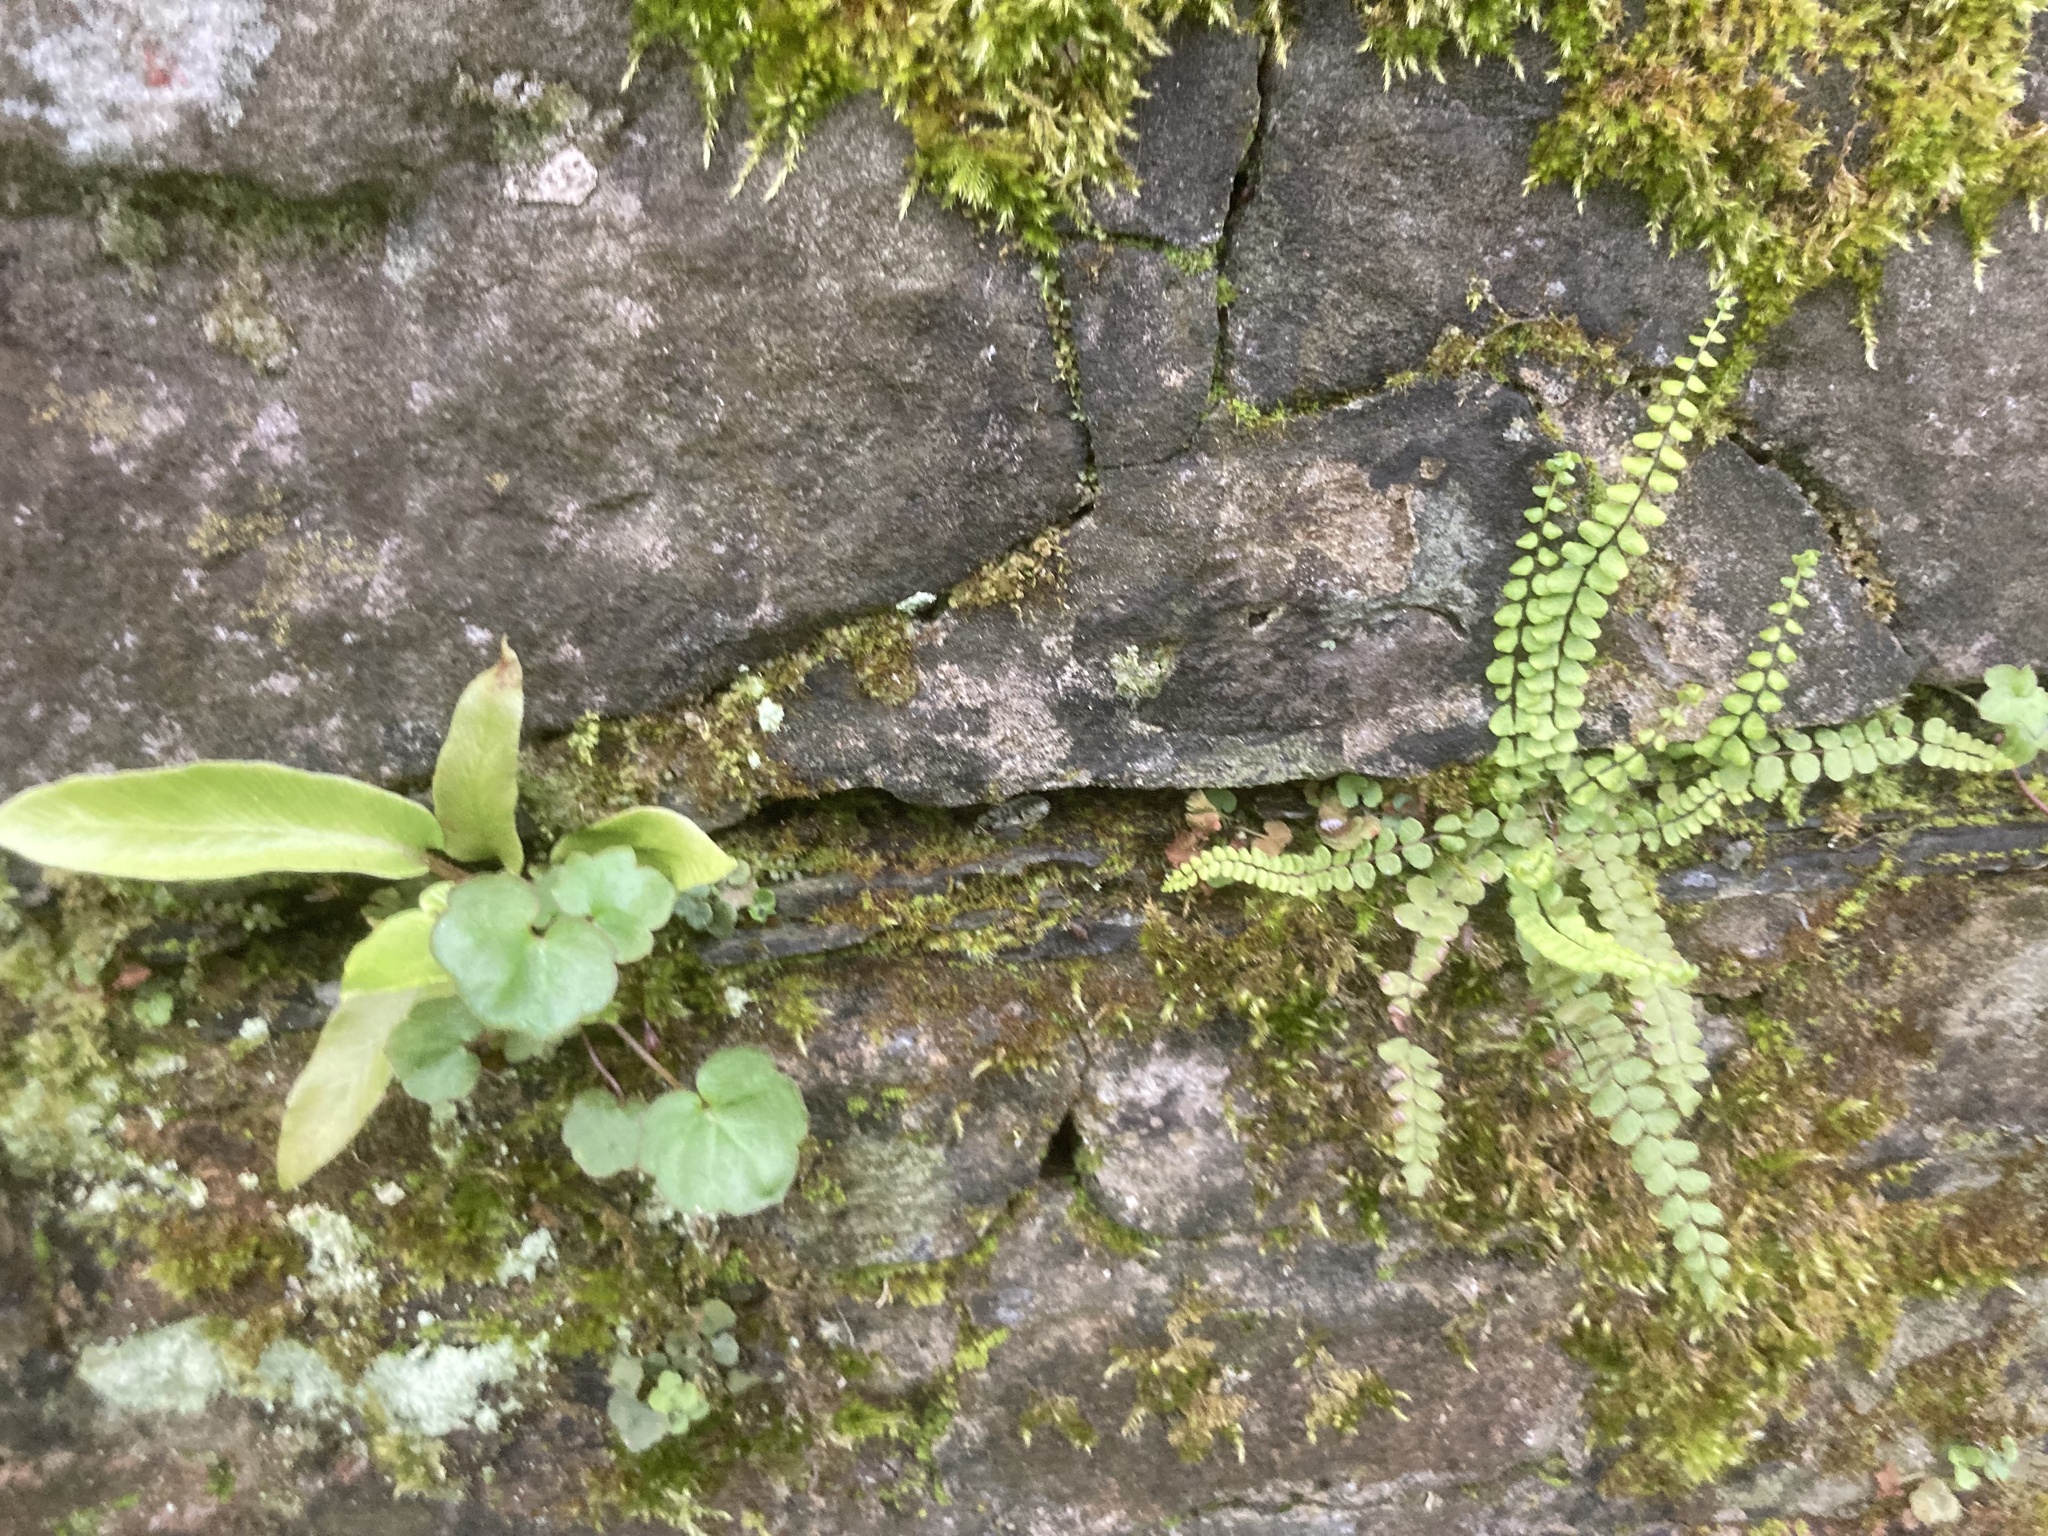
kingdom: Plantae
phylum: Tracheophyta
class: Polypodiopsida
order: Polypodiales
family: Aspleniaceae
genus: Asplenium
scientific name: Asplenium trichomanes
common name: Maidenhair spleenwort
